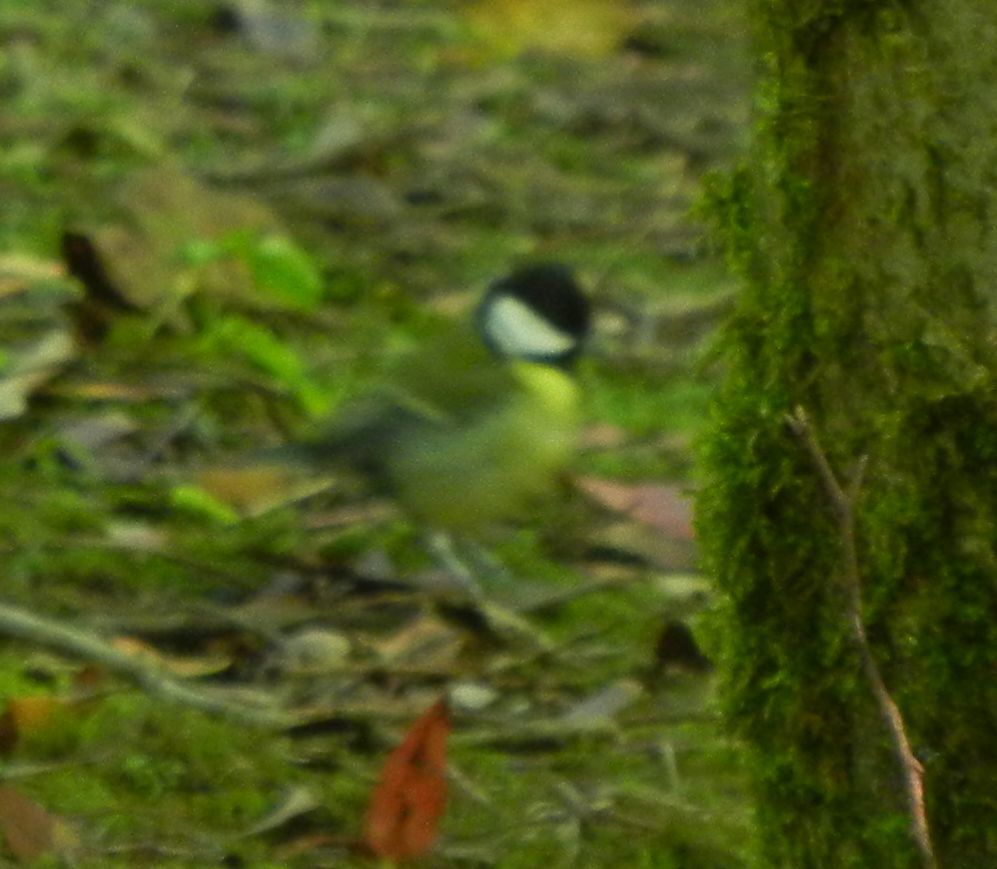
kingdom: Animalia
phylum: Chordata
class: Aves
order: Passeriformes
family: Paridae
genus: Parus
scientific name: Parus major
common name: Great tit
